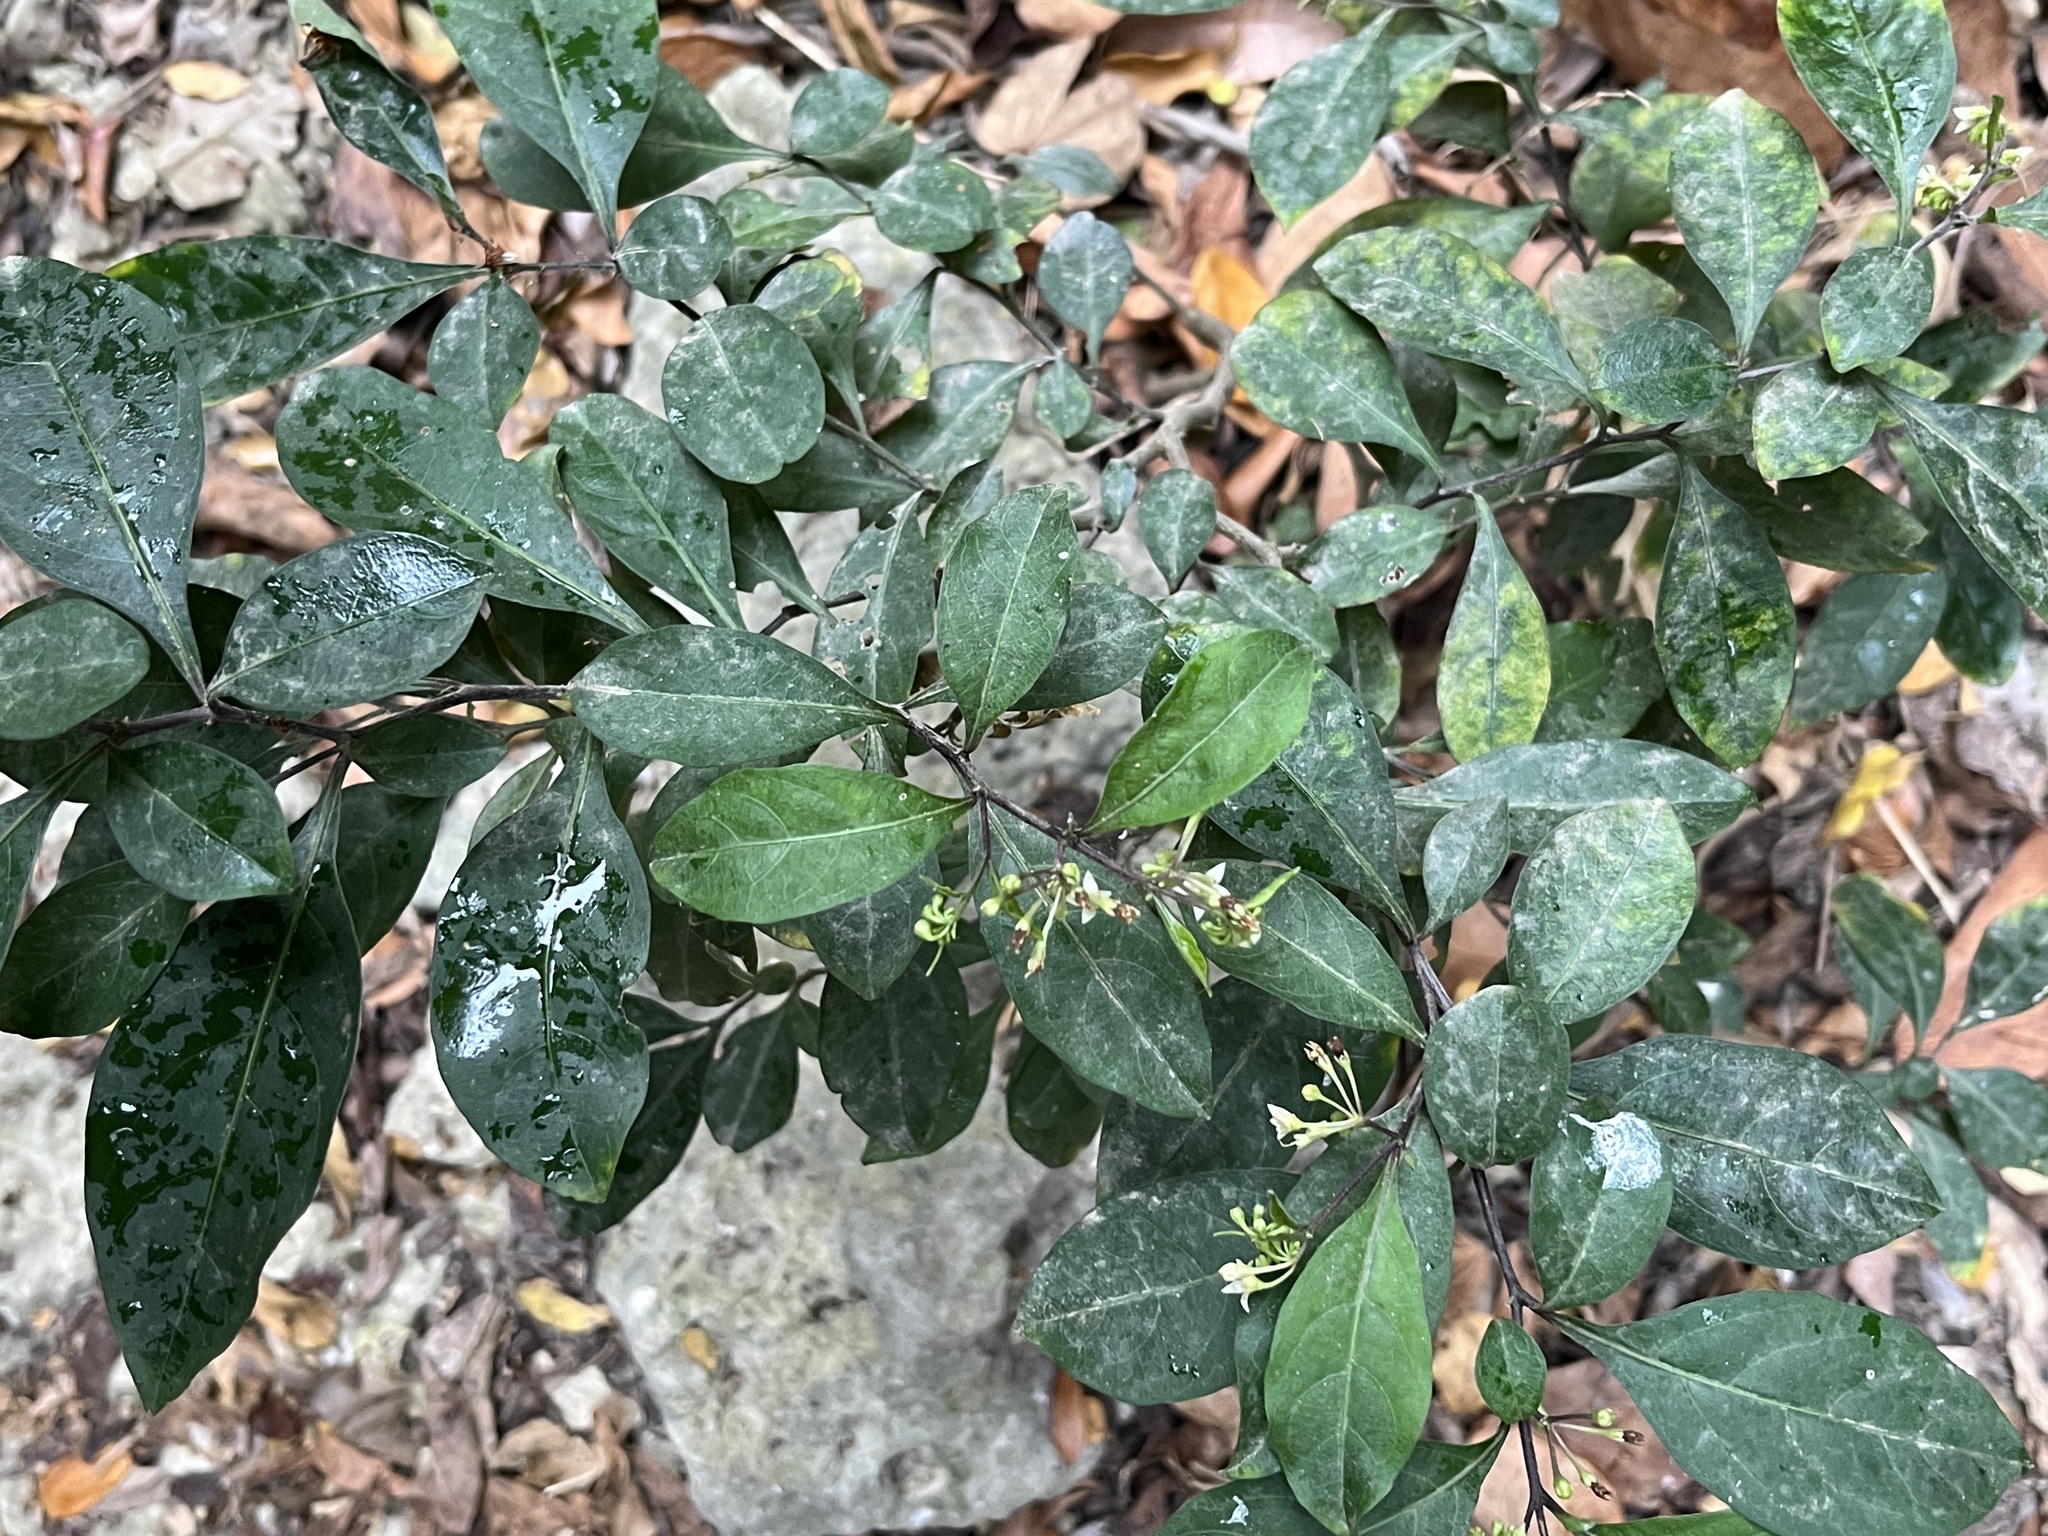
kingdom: Plantae
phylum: Tracheophyta
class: Magnoliopsida
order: Solanales
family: Solanaceae
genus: Solanum
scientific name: Solanum diphyllum
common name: Twoleaf nightshade
